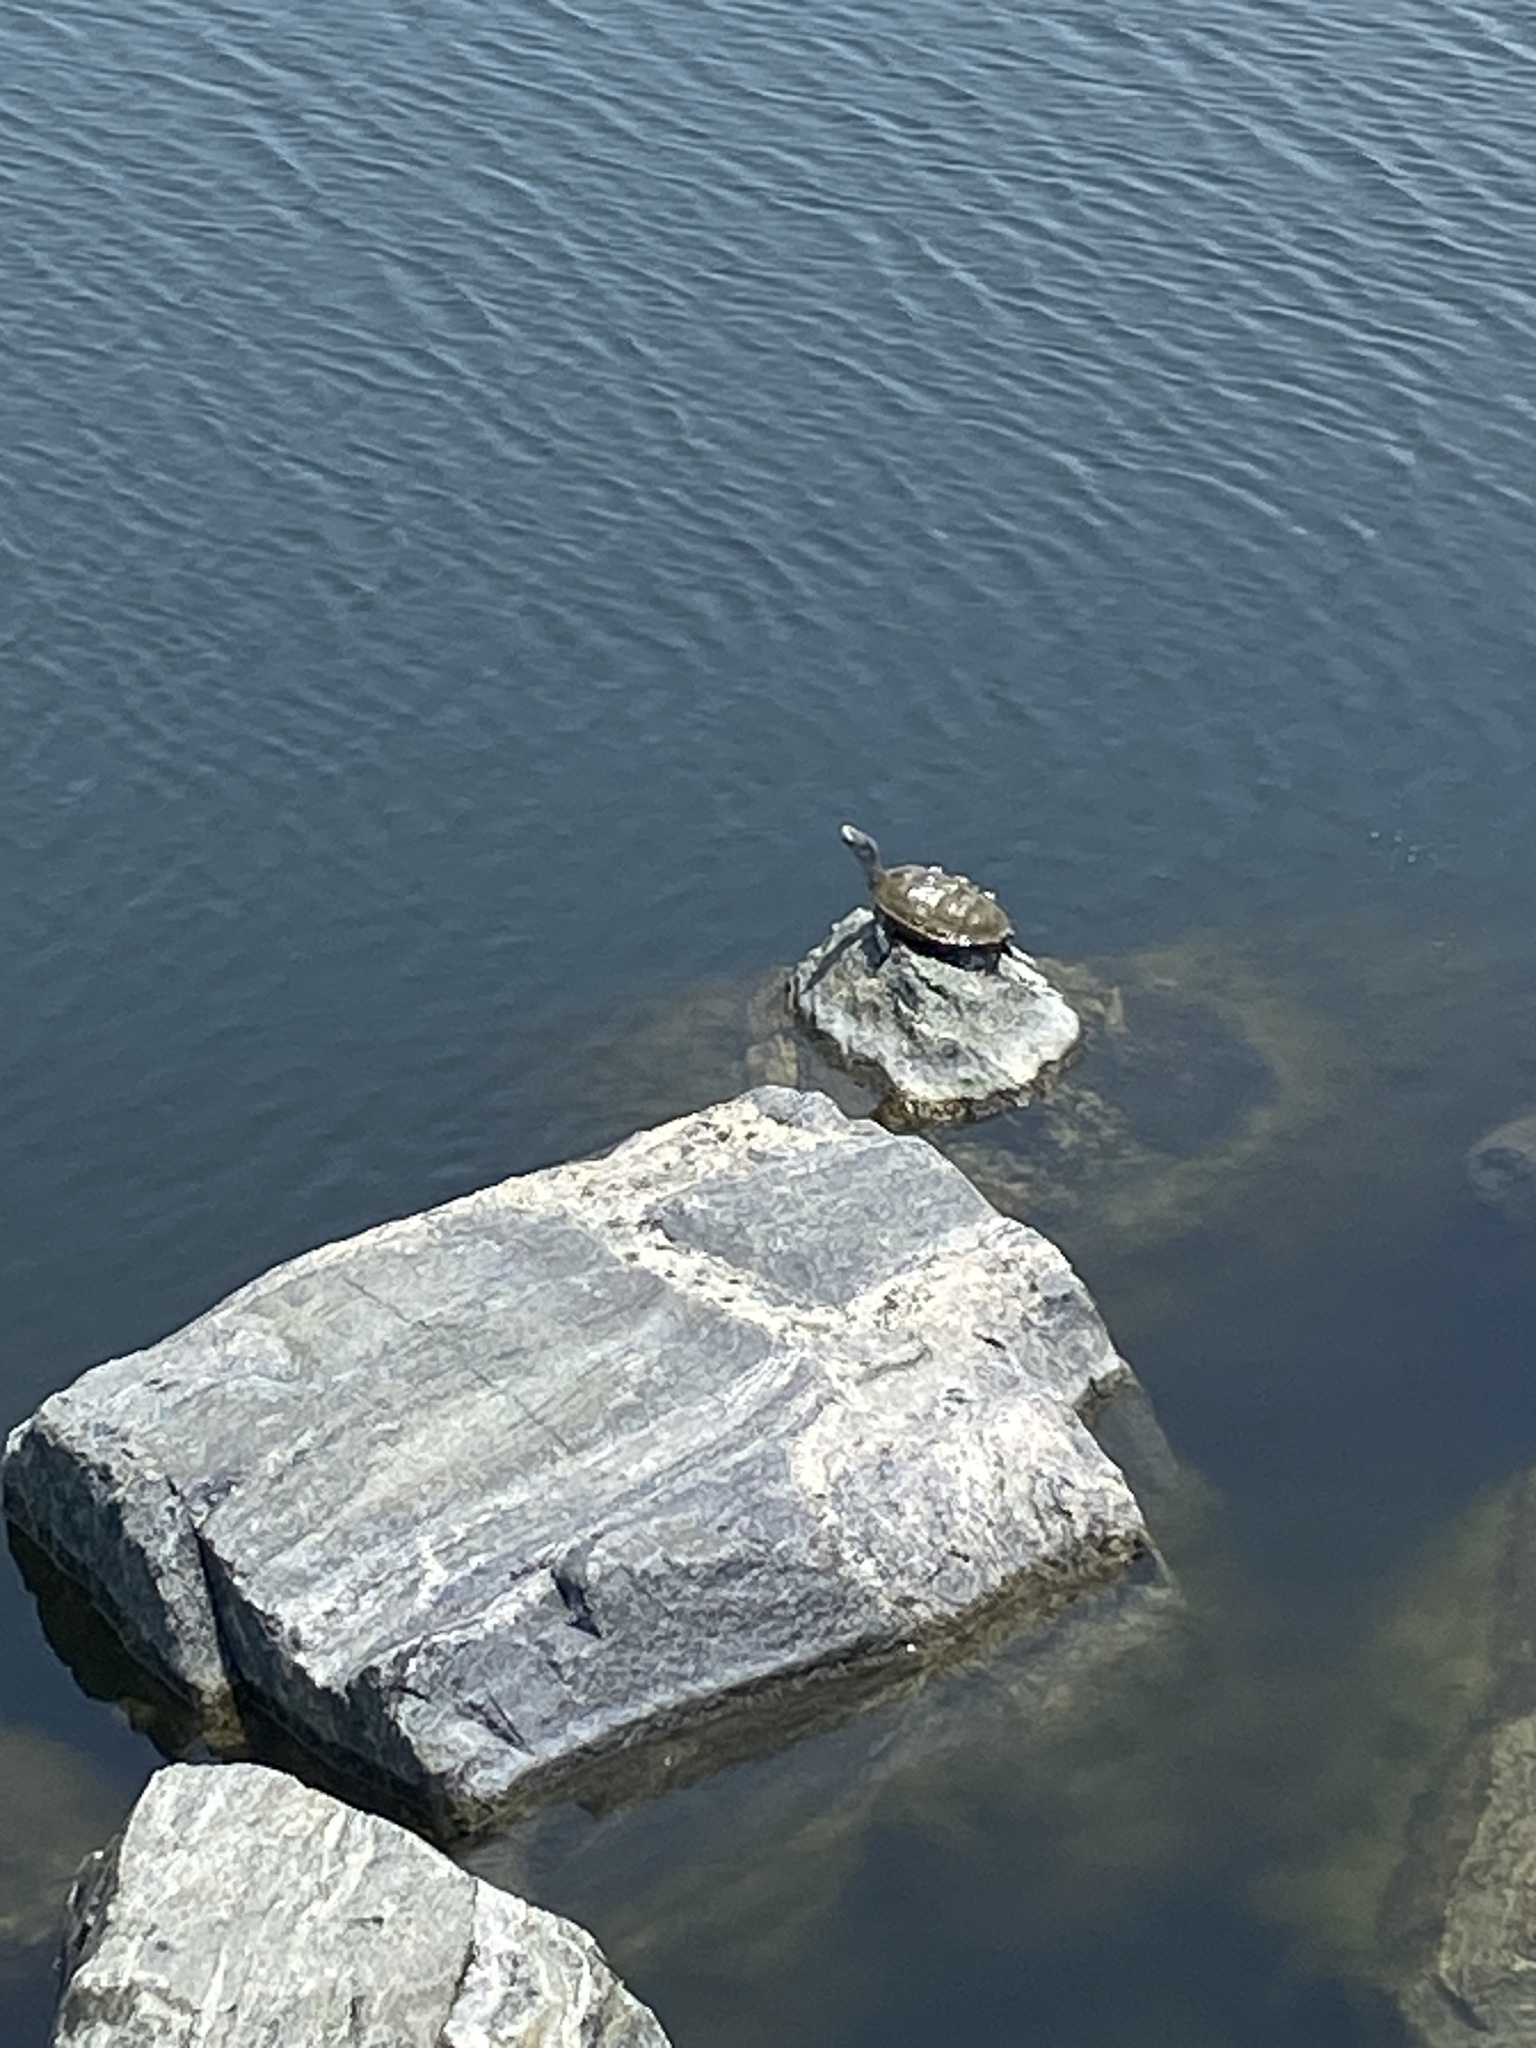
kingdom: Animalia
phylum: Chordata
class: Testudines
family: Emydidae
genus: Malaclemys
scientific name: Malaclemys terrapin
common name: Diamondback terrapin
